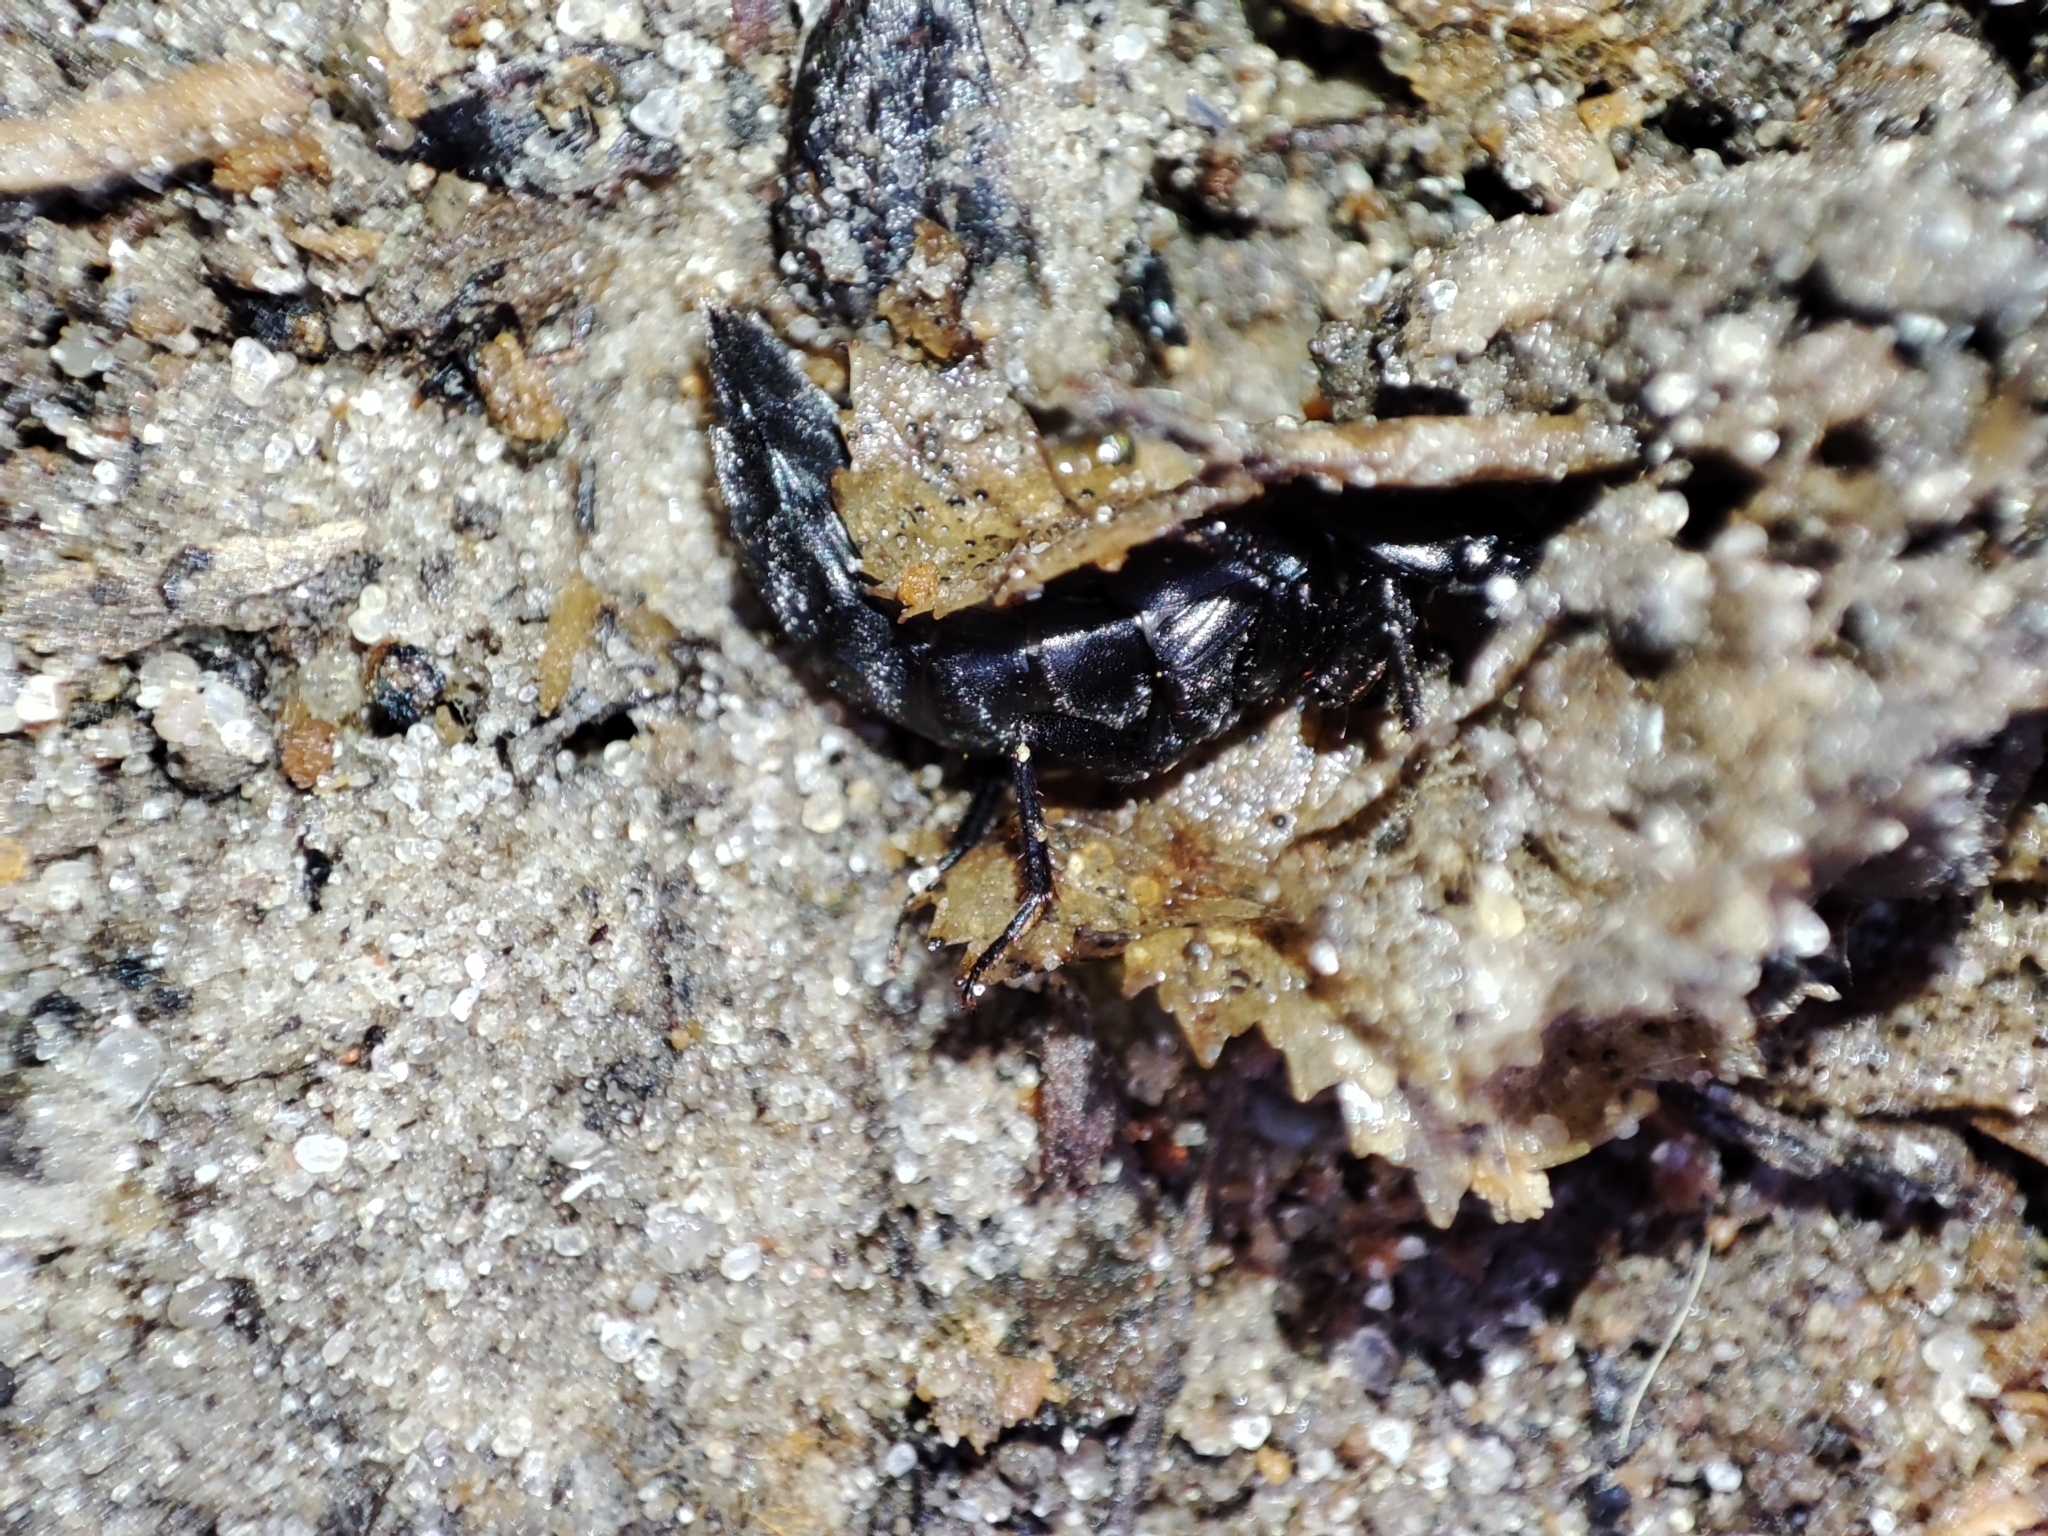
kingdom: Animalia
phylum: Arthropoda
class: Insecta
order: Coleoptera
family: Staphylinidae
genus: Ocypus
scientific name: Ocypus nitens
